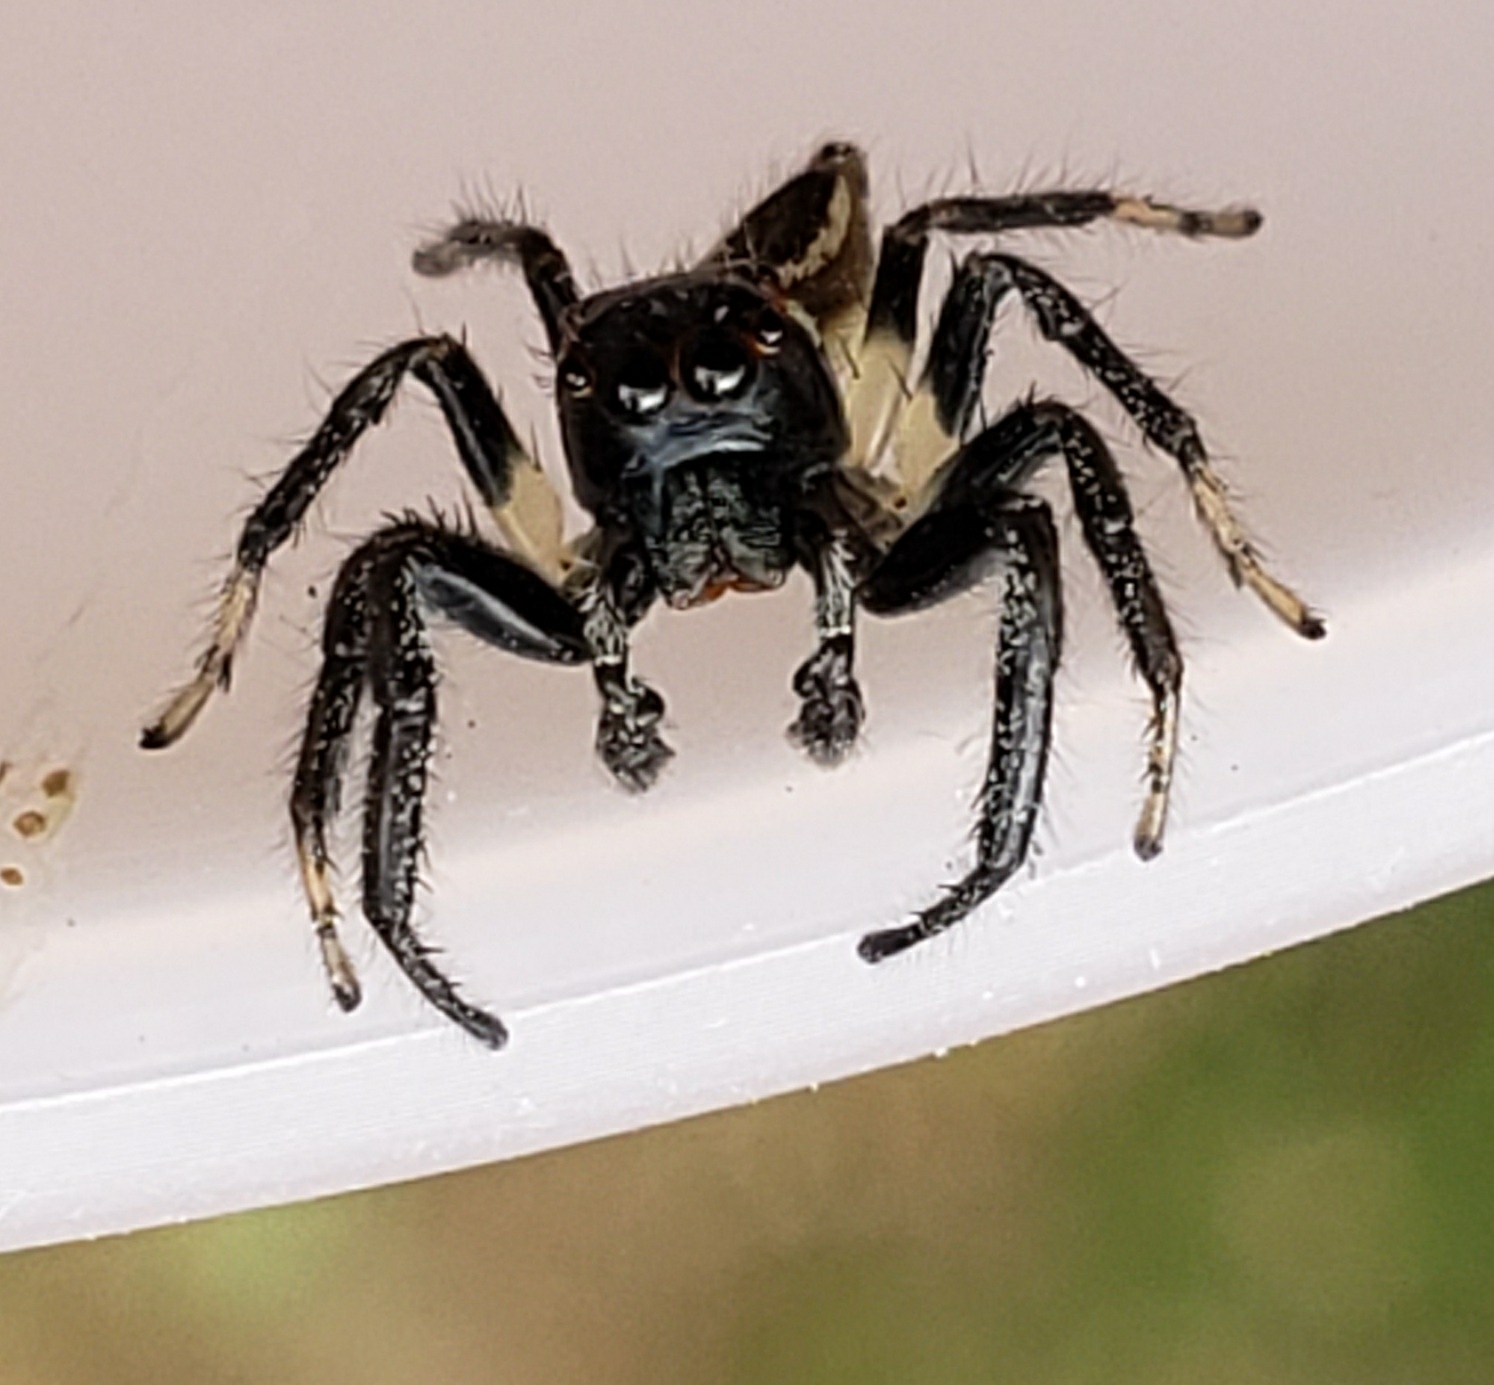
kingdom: Animalia
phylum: Arthropoda
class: Arachnida
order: Araneae
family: Salticidae
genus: Colonus
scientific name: Colonus sylvanus
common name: Jumping spiders
